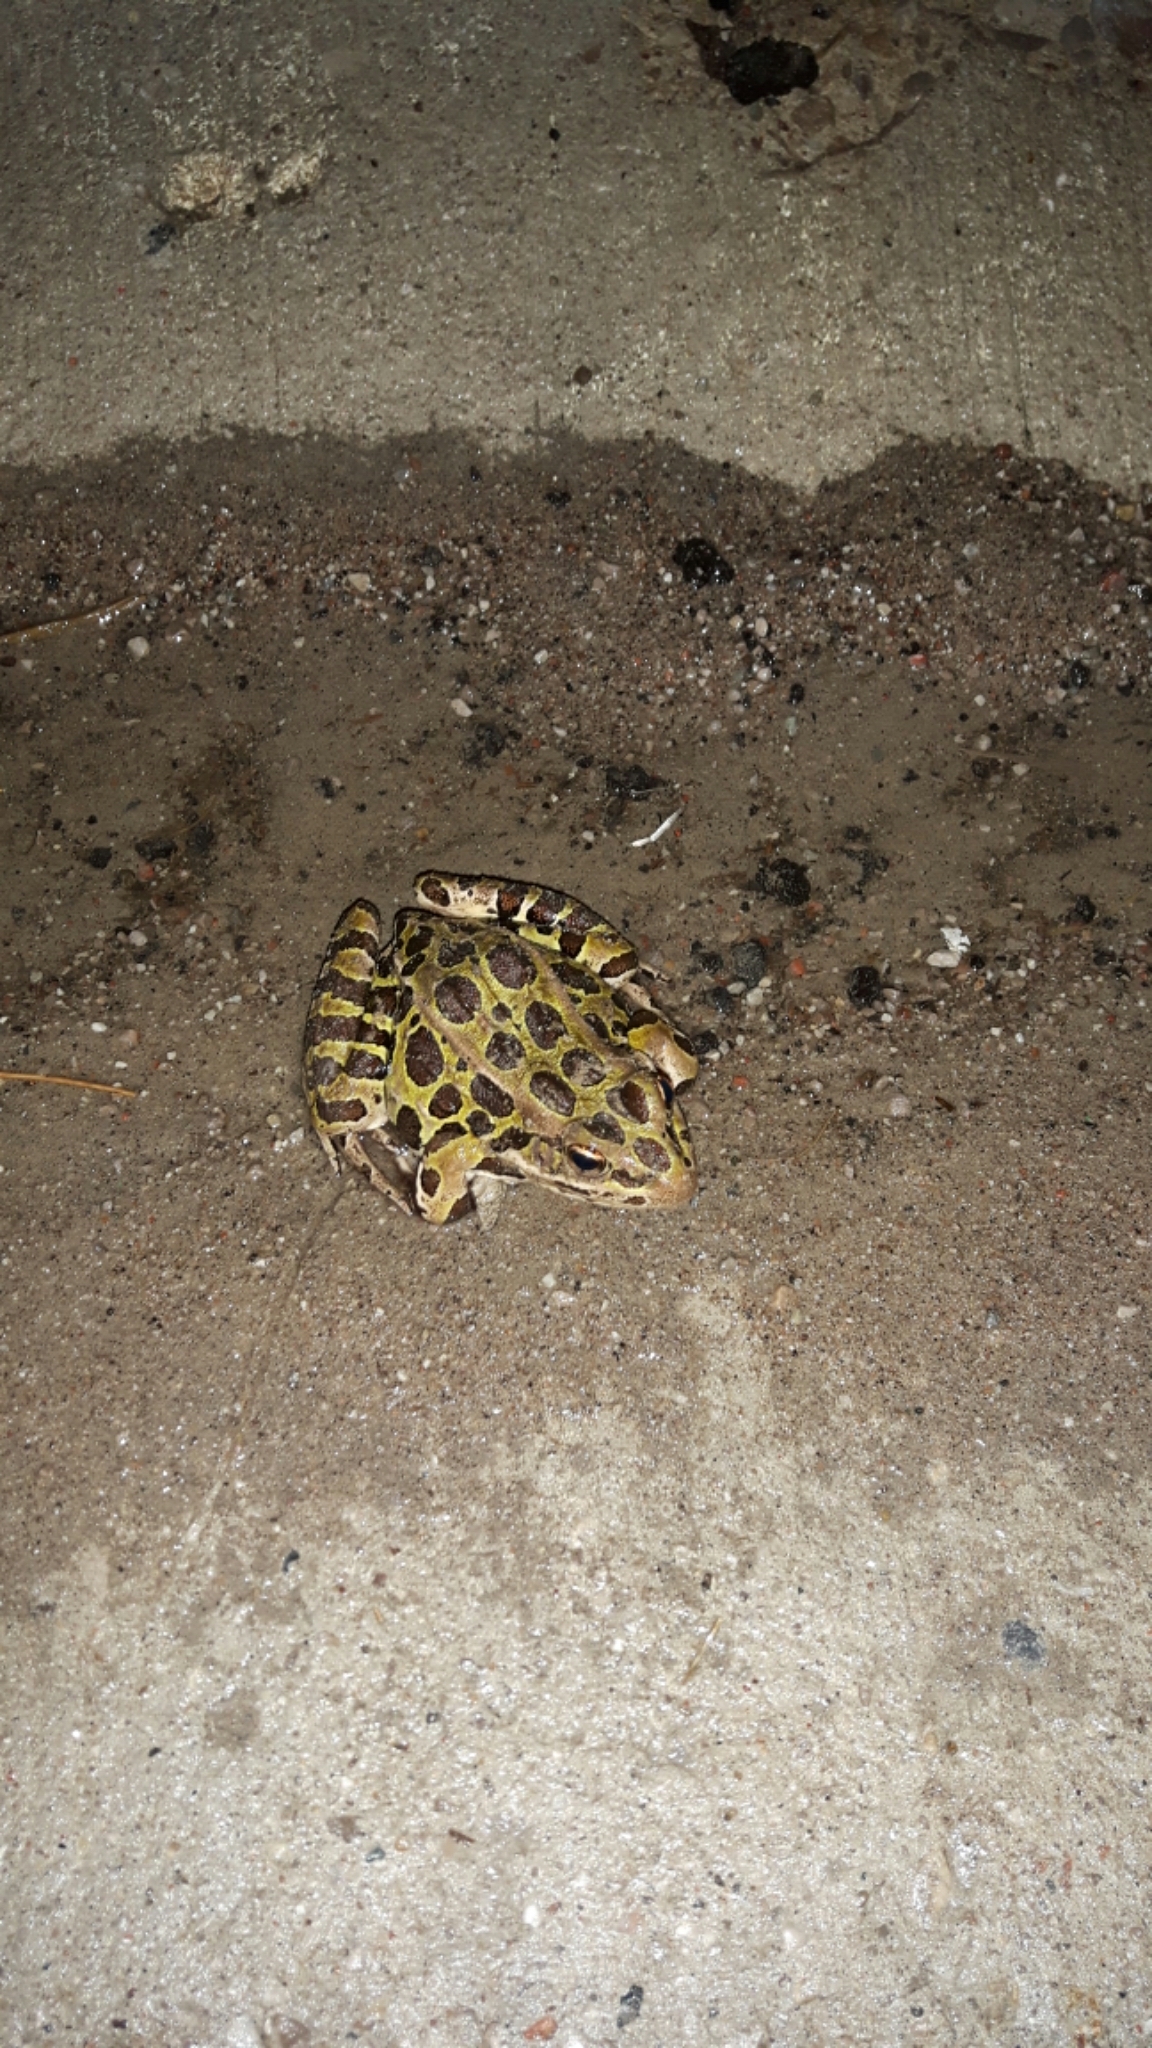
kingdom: Animalia
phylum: Chordata
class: Amphibia
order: Anura
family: Ranidae
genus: Lithobates
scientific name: Lithobates pipiens
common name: Northern leopard frog
